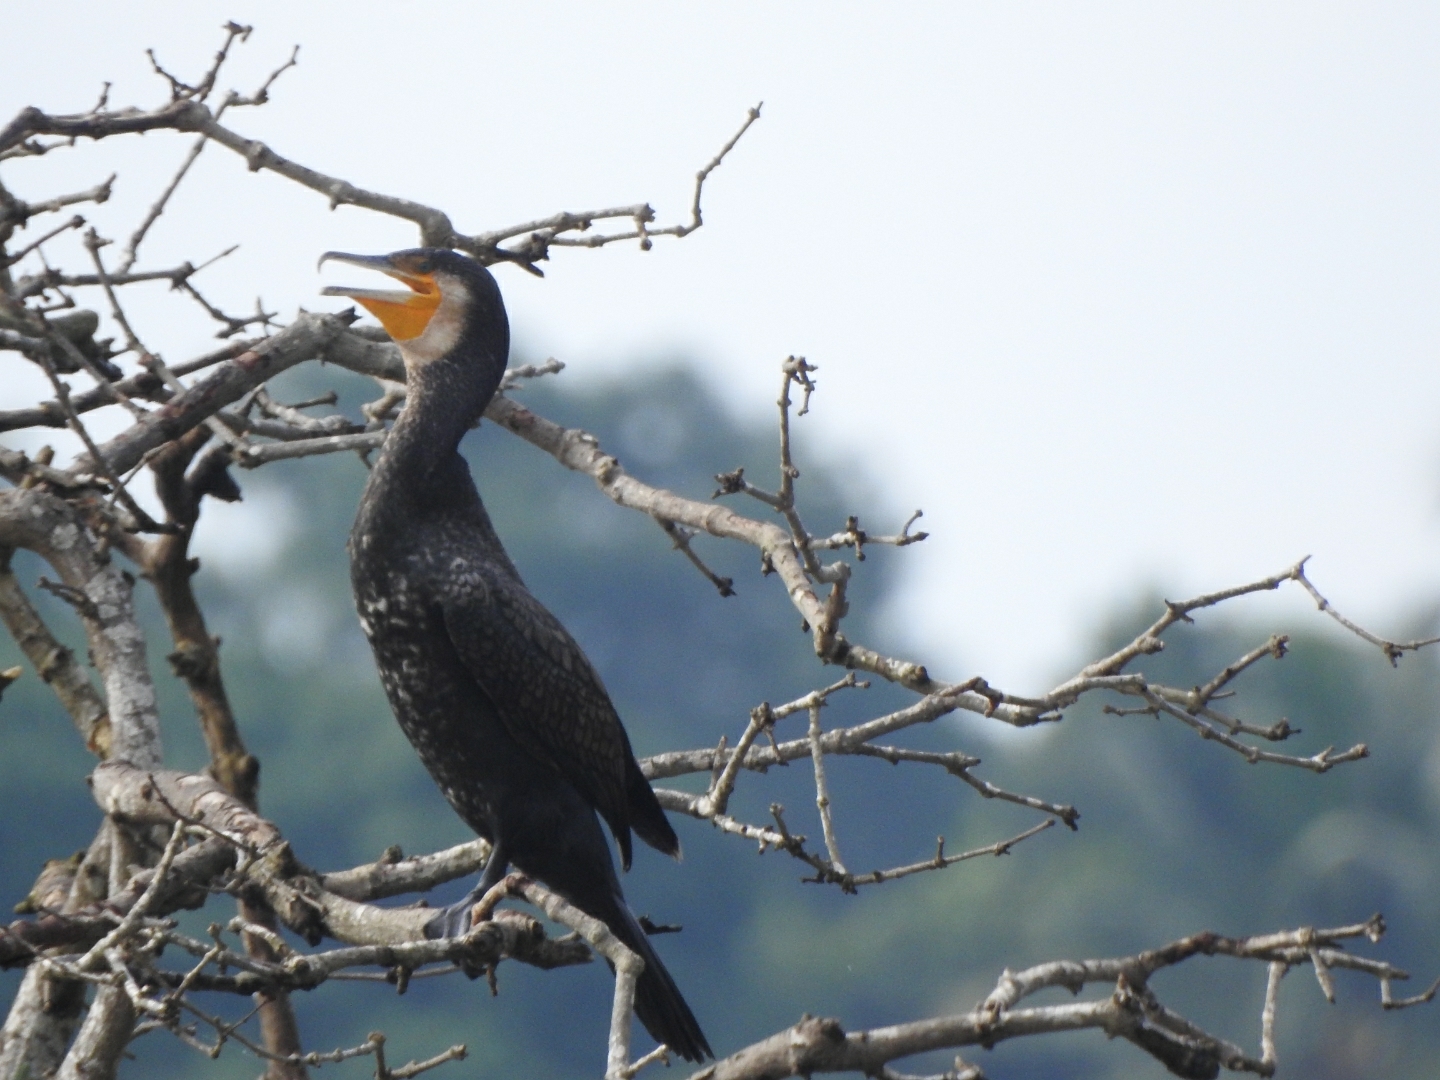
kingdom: Animalia
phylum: Chordata
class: Aves
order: Suliformes
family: Phalacrocoracidae
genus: Phalacrocorax
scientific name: Phalacrocorax carbo
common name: Great cormorant
